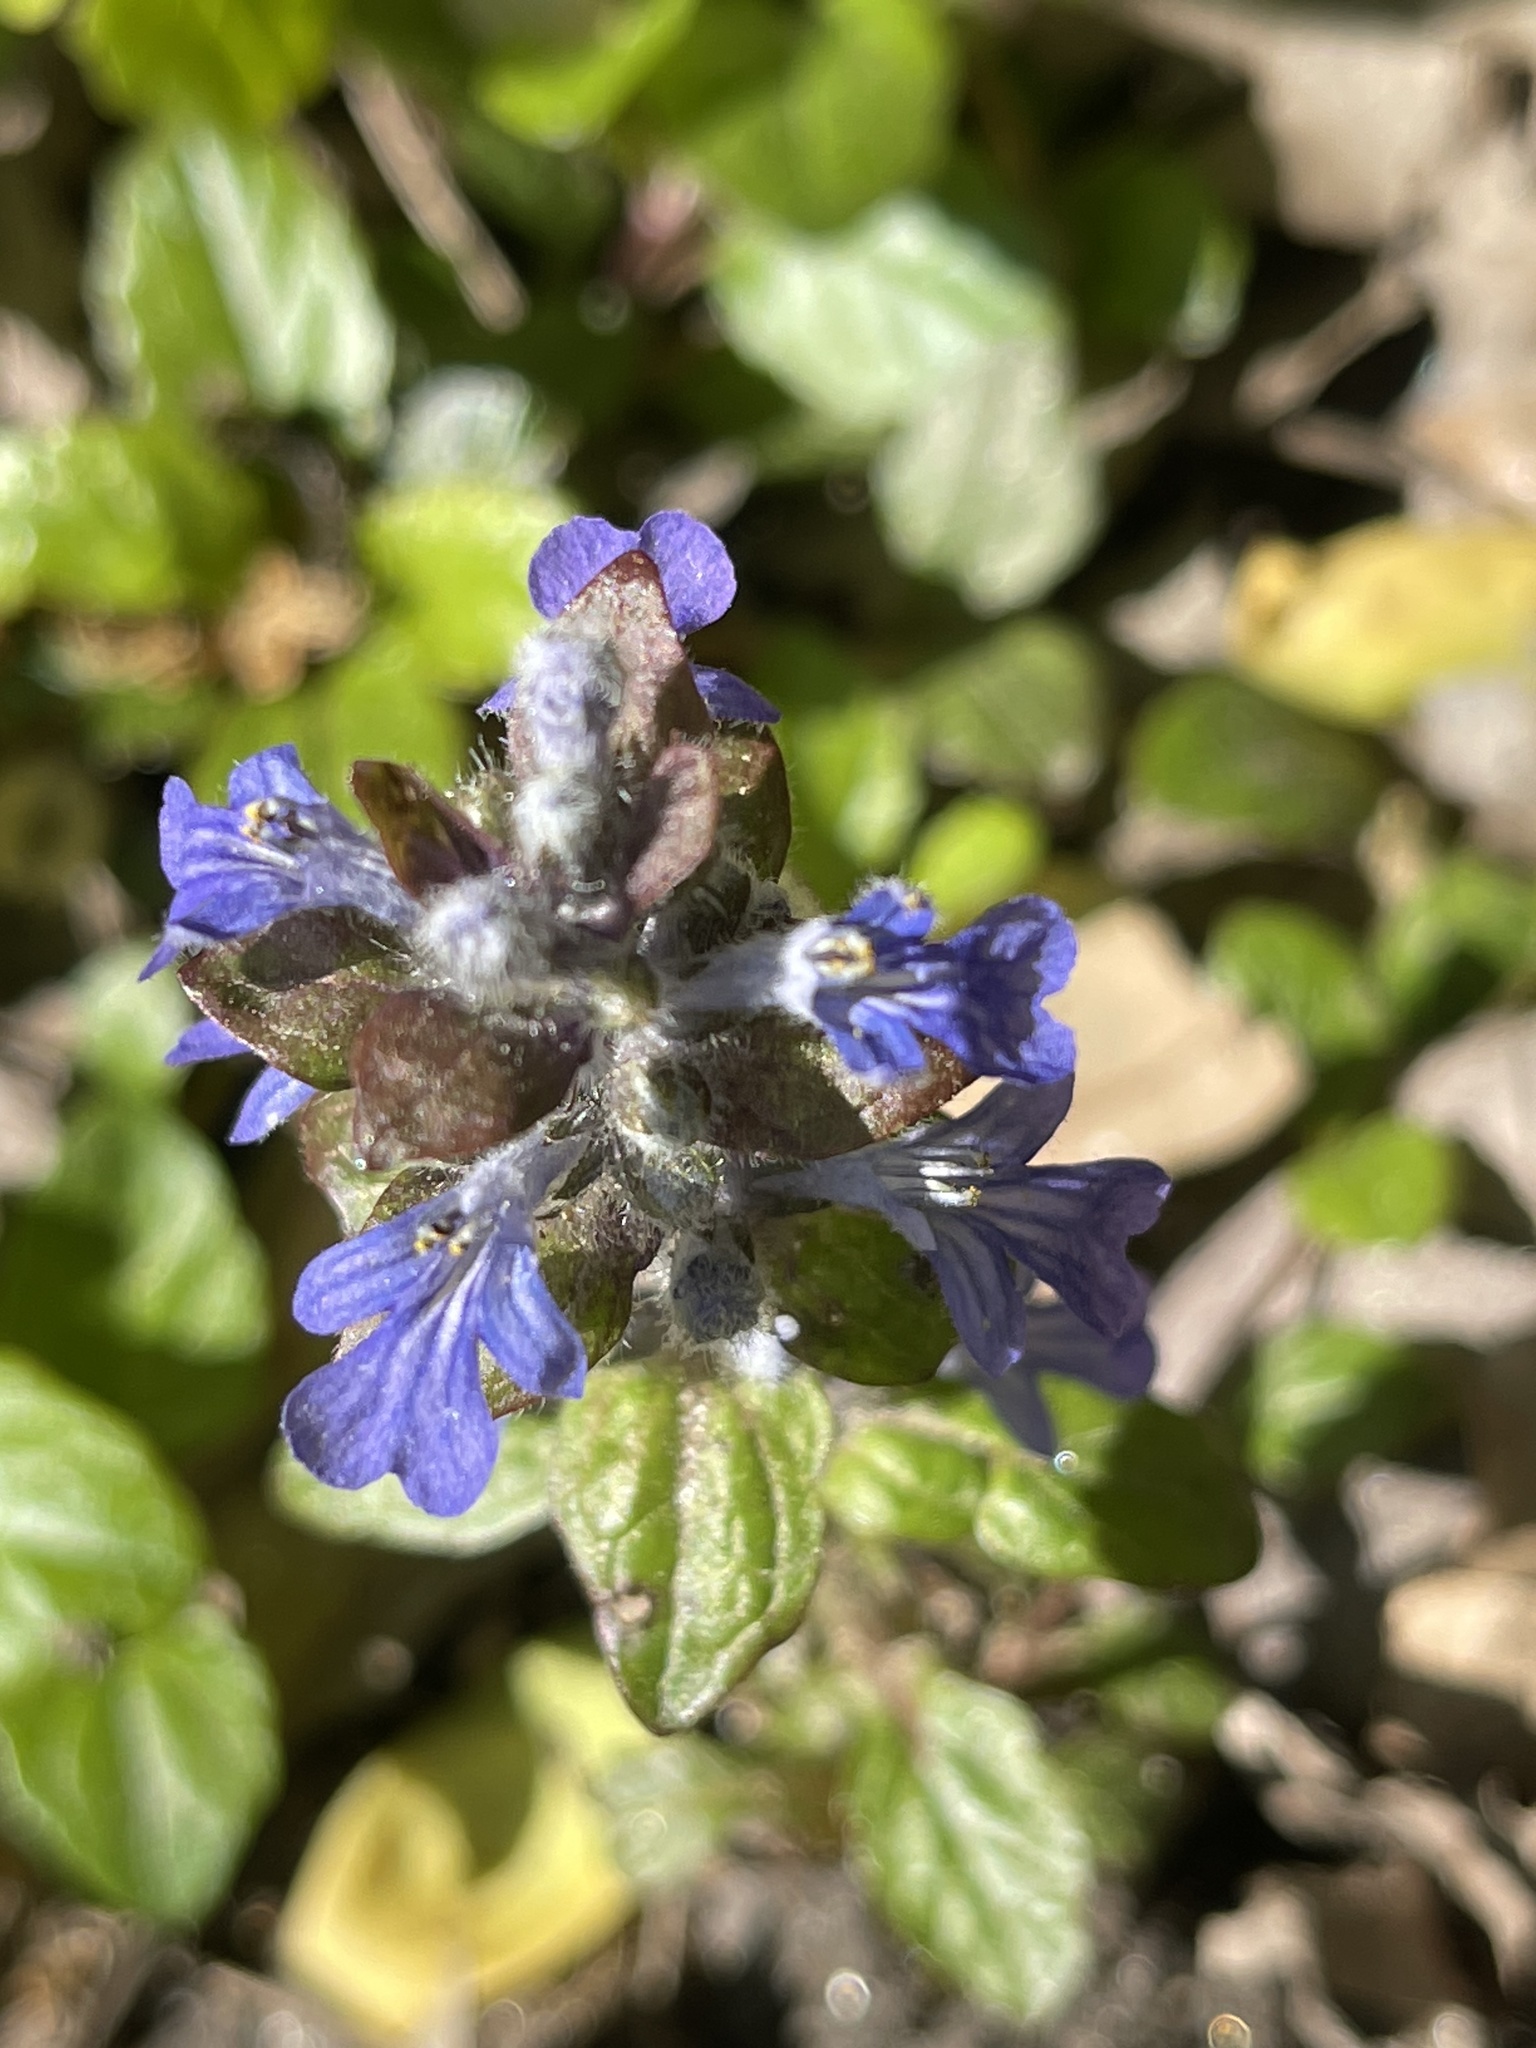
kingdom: Plantae
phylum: Tracheophyta
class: Magnoliopsida
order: Lamiales
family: Lamiaceae
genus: Ajuga
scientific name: Ajuga reptans
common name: Bugle
